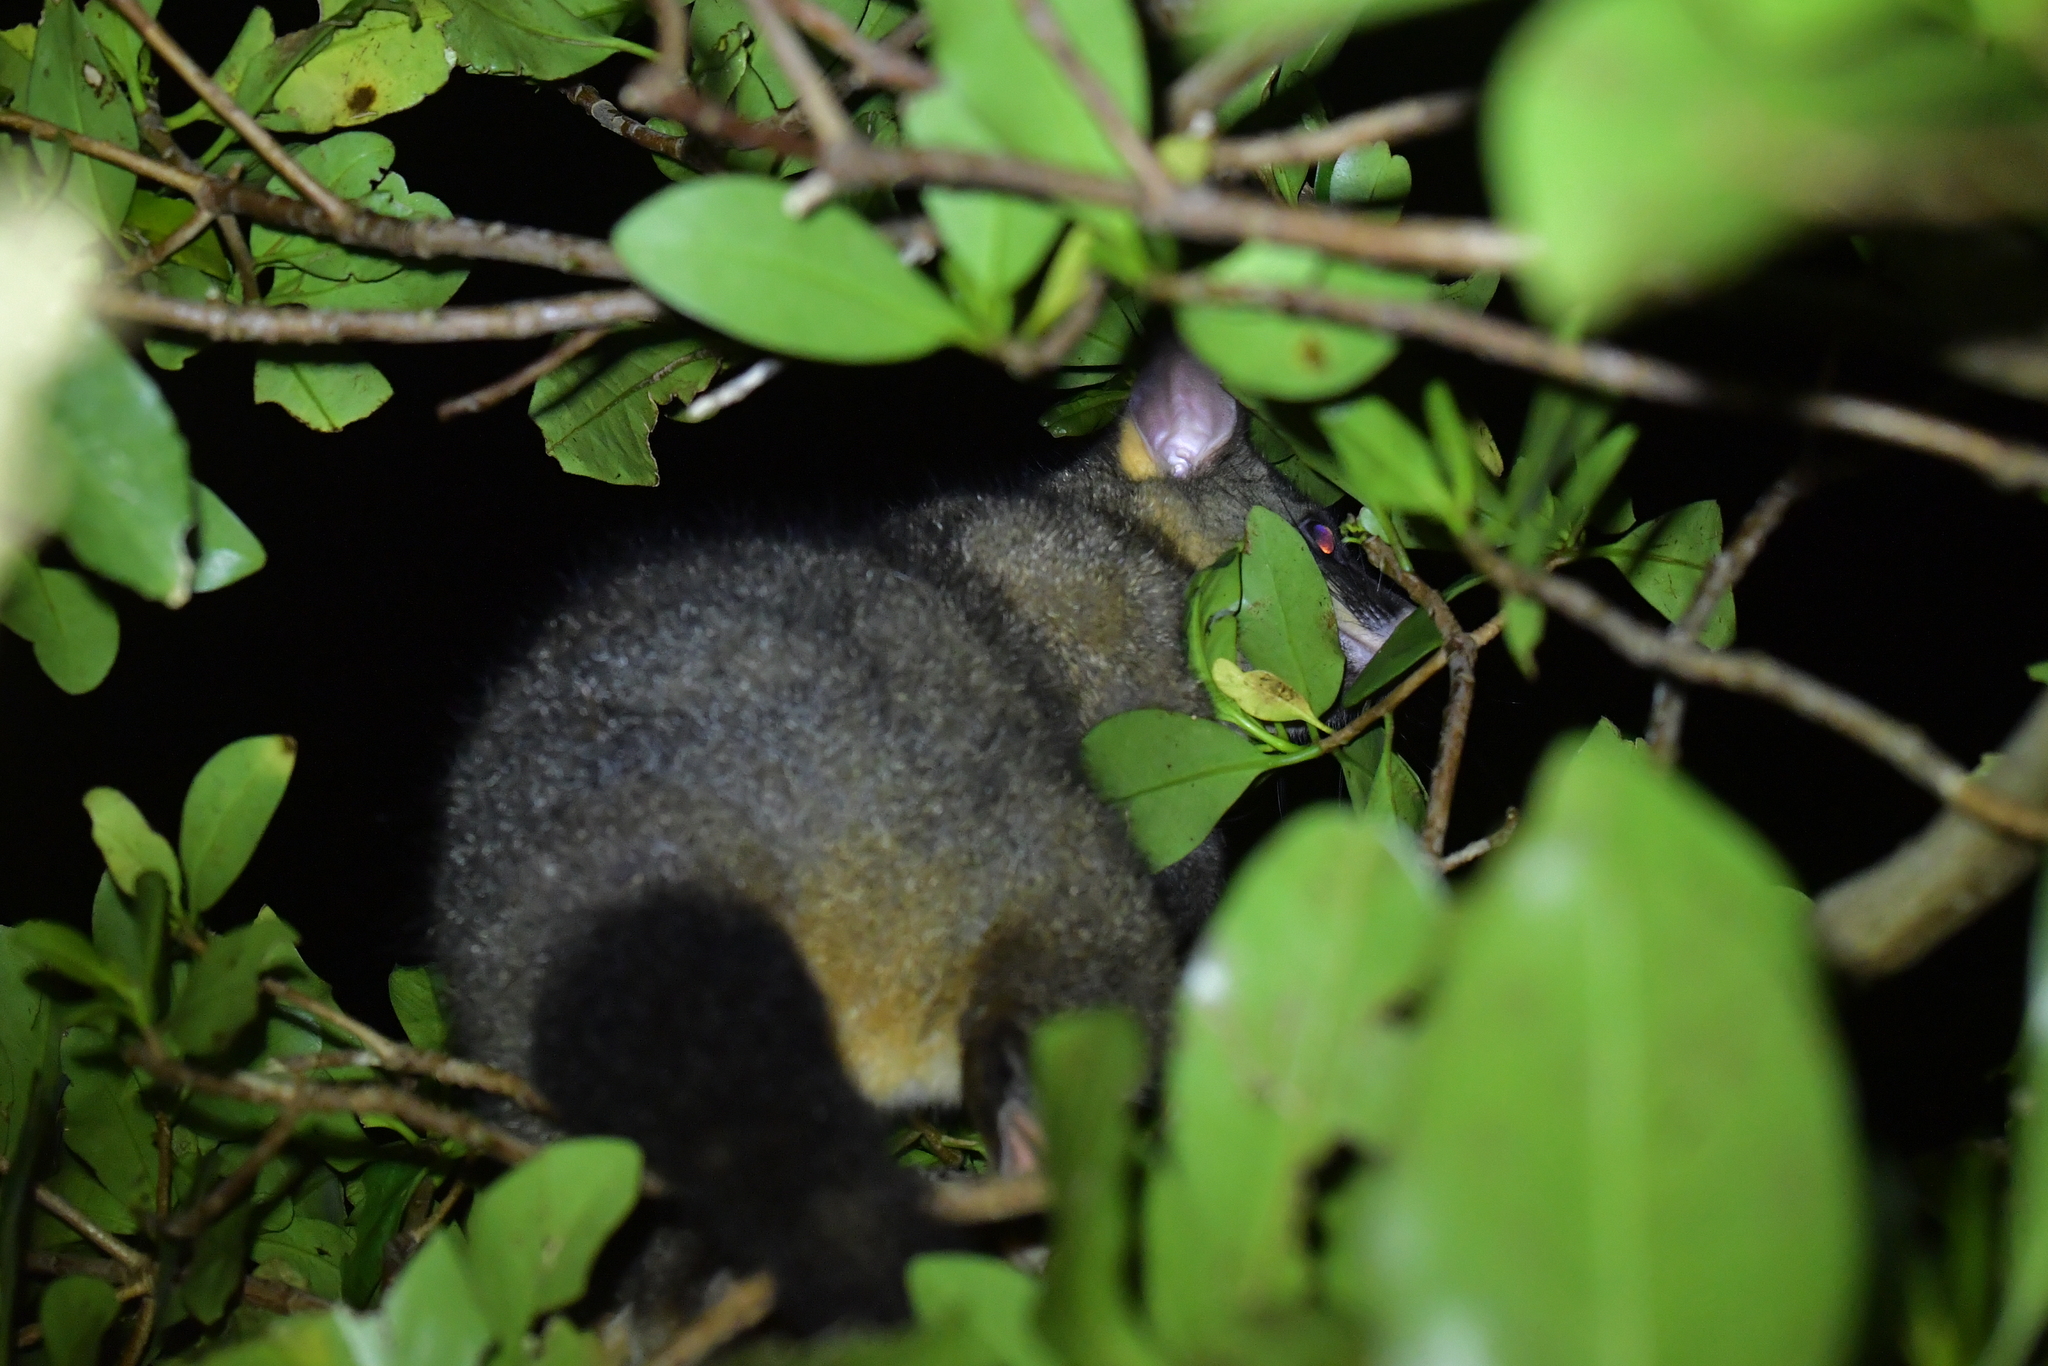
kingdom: Animalia
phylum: Chordata
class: Mammalia
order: Diprotodontia
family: Phalangeridae
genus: Trichosurus
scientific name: Trichosurus vulpecula
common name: Common brushtail
